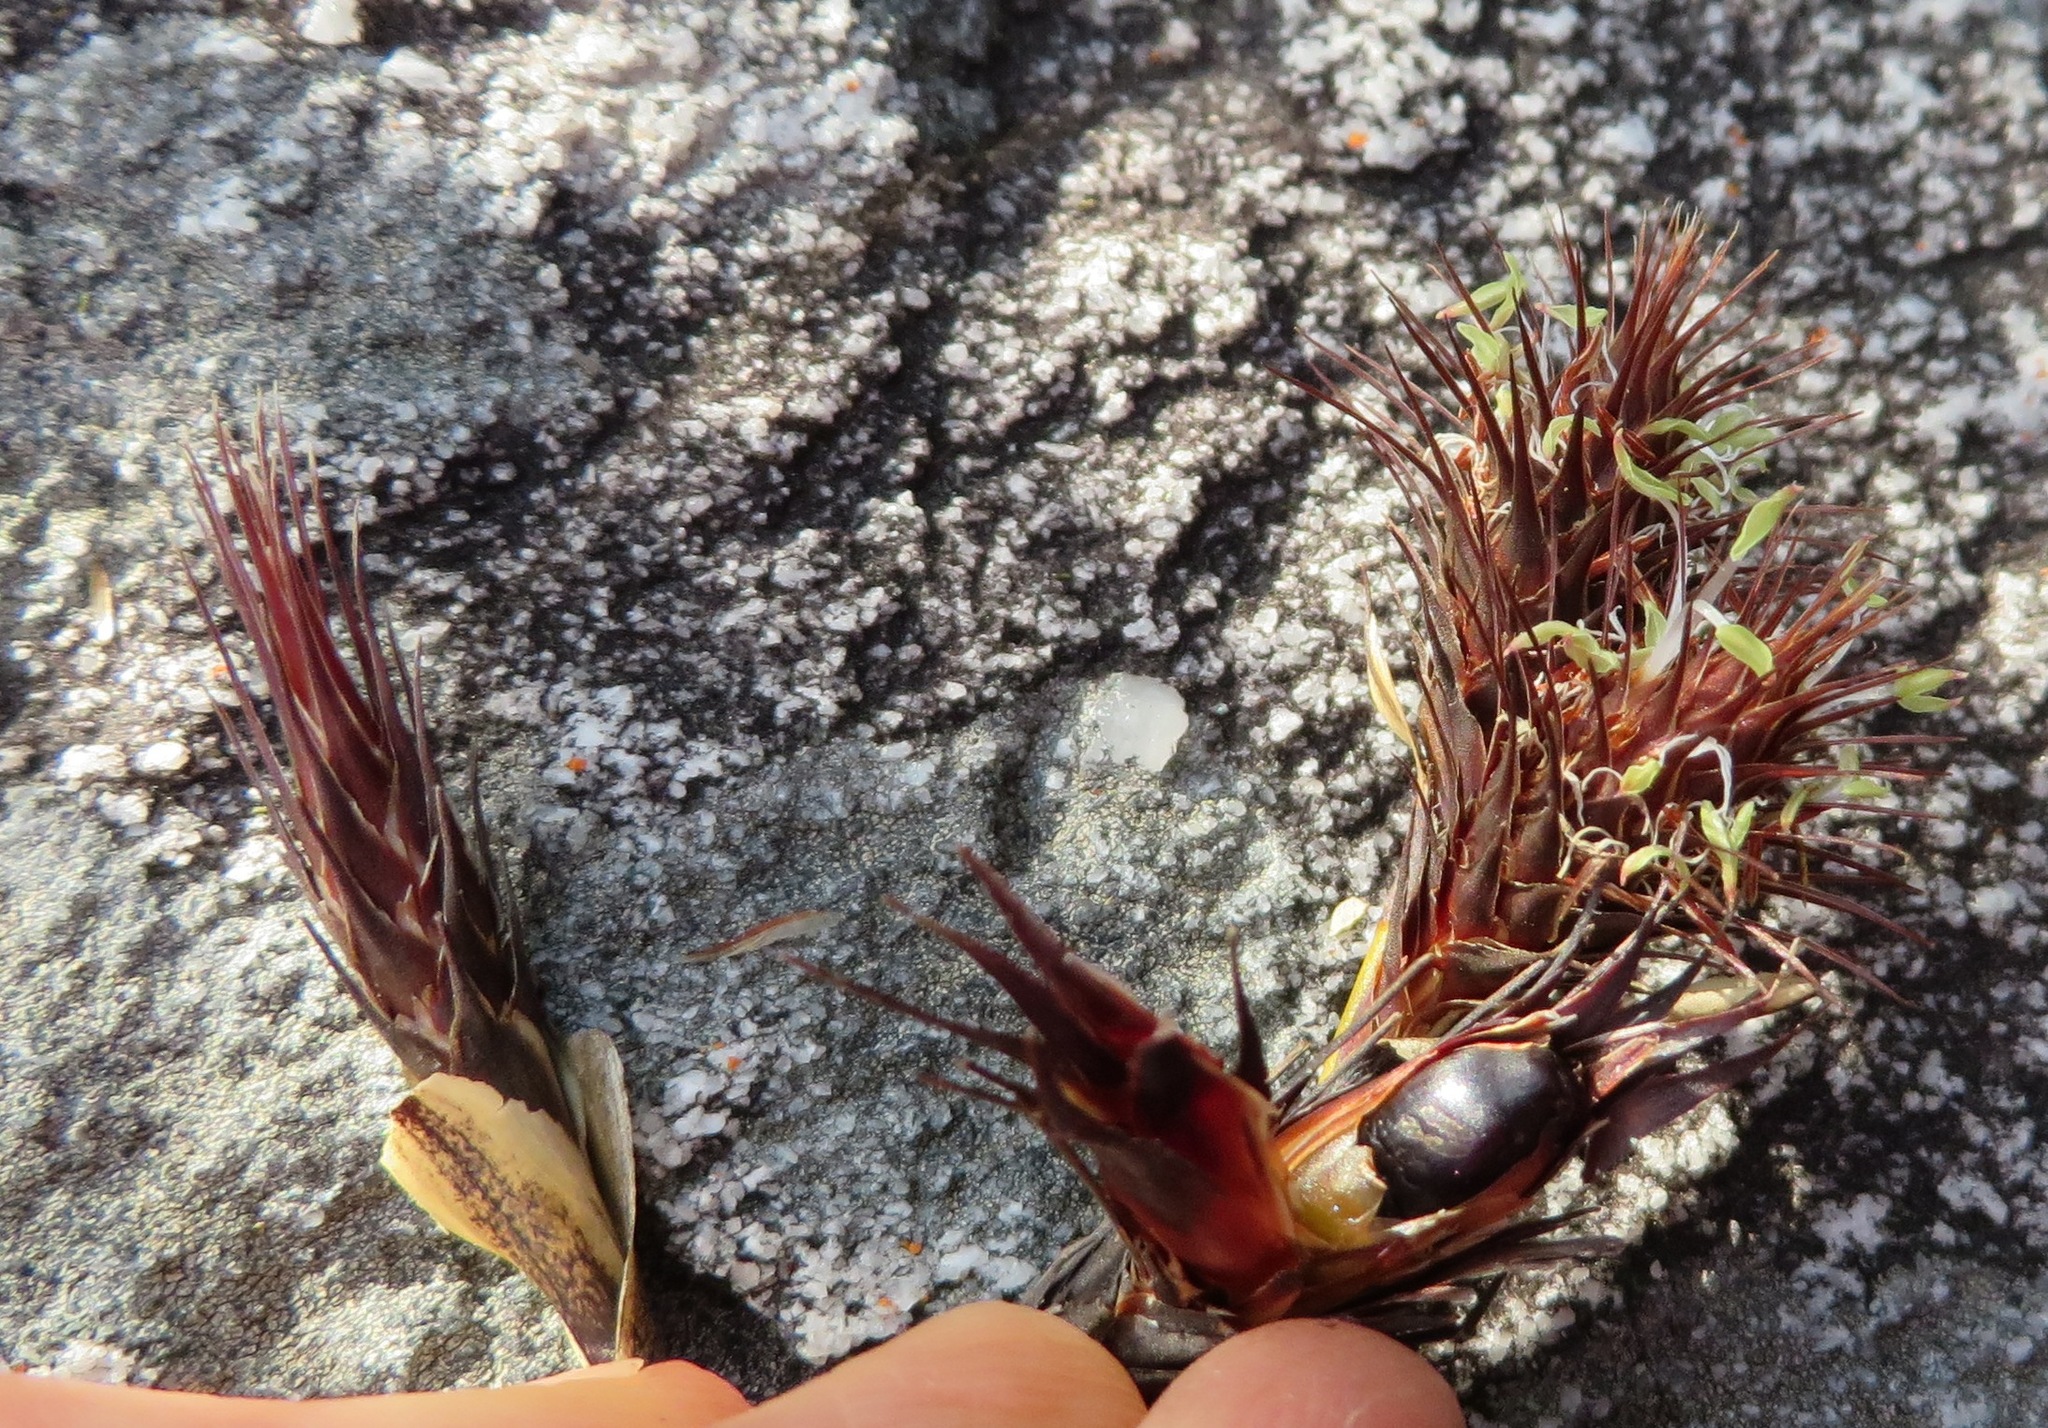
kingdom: Plantae
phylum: Tracheophyta
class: Liliopsida
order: Poales
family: Restionaceae
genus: Hypodiscus
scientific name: Hypodiscus aristatus
